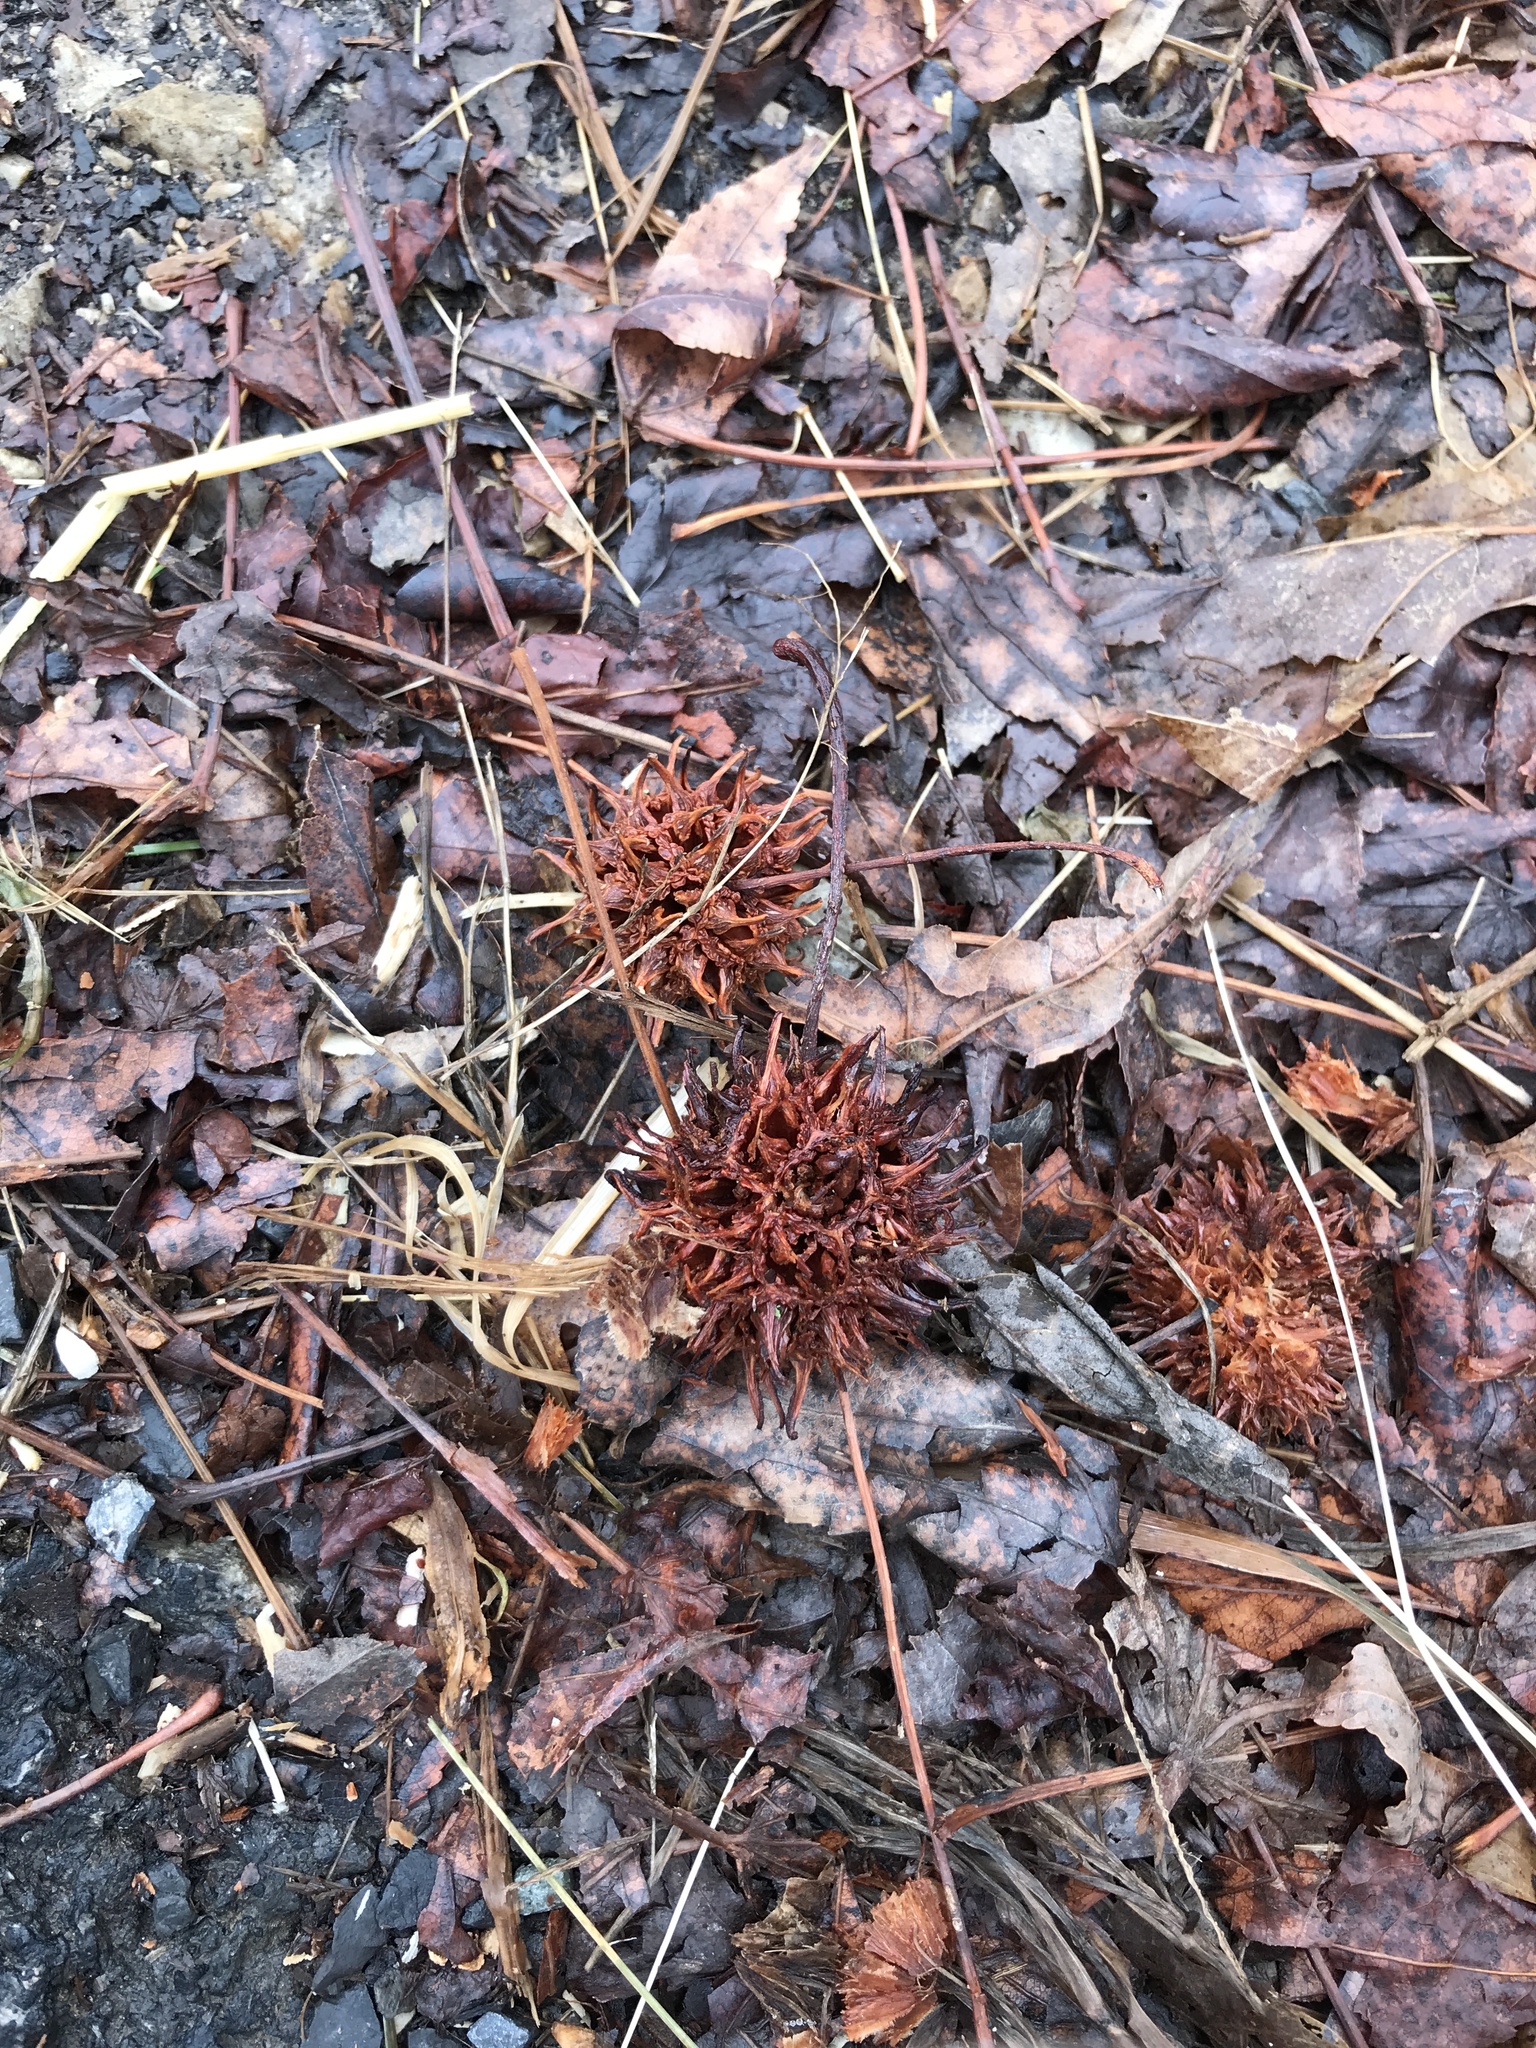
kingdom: Plantae
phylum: Tracheophyta
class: Magnoliopsida
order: Saxifragales
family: Altingiaceae
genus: Liquidambar
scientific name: Liquidambar styraciflua
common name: Sweet gum
